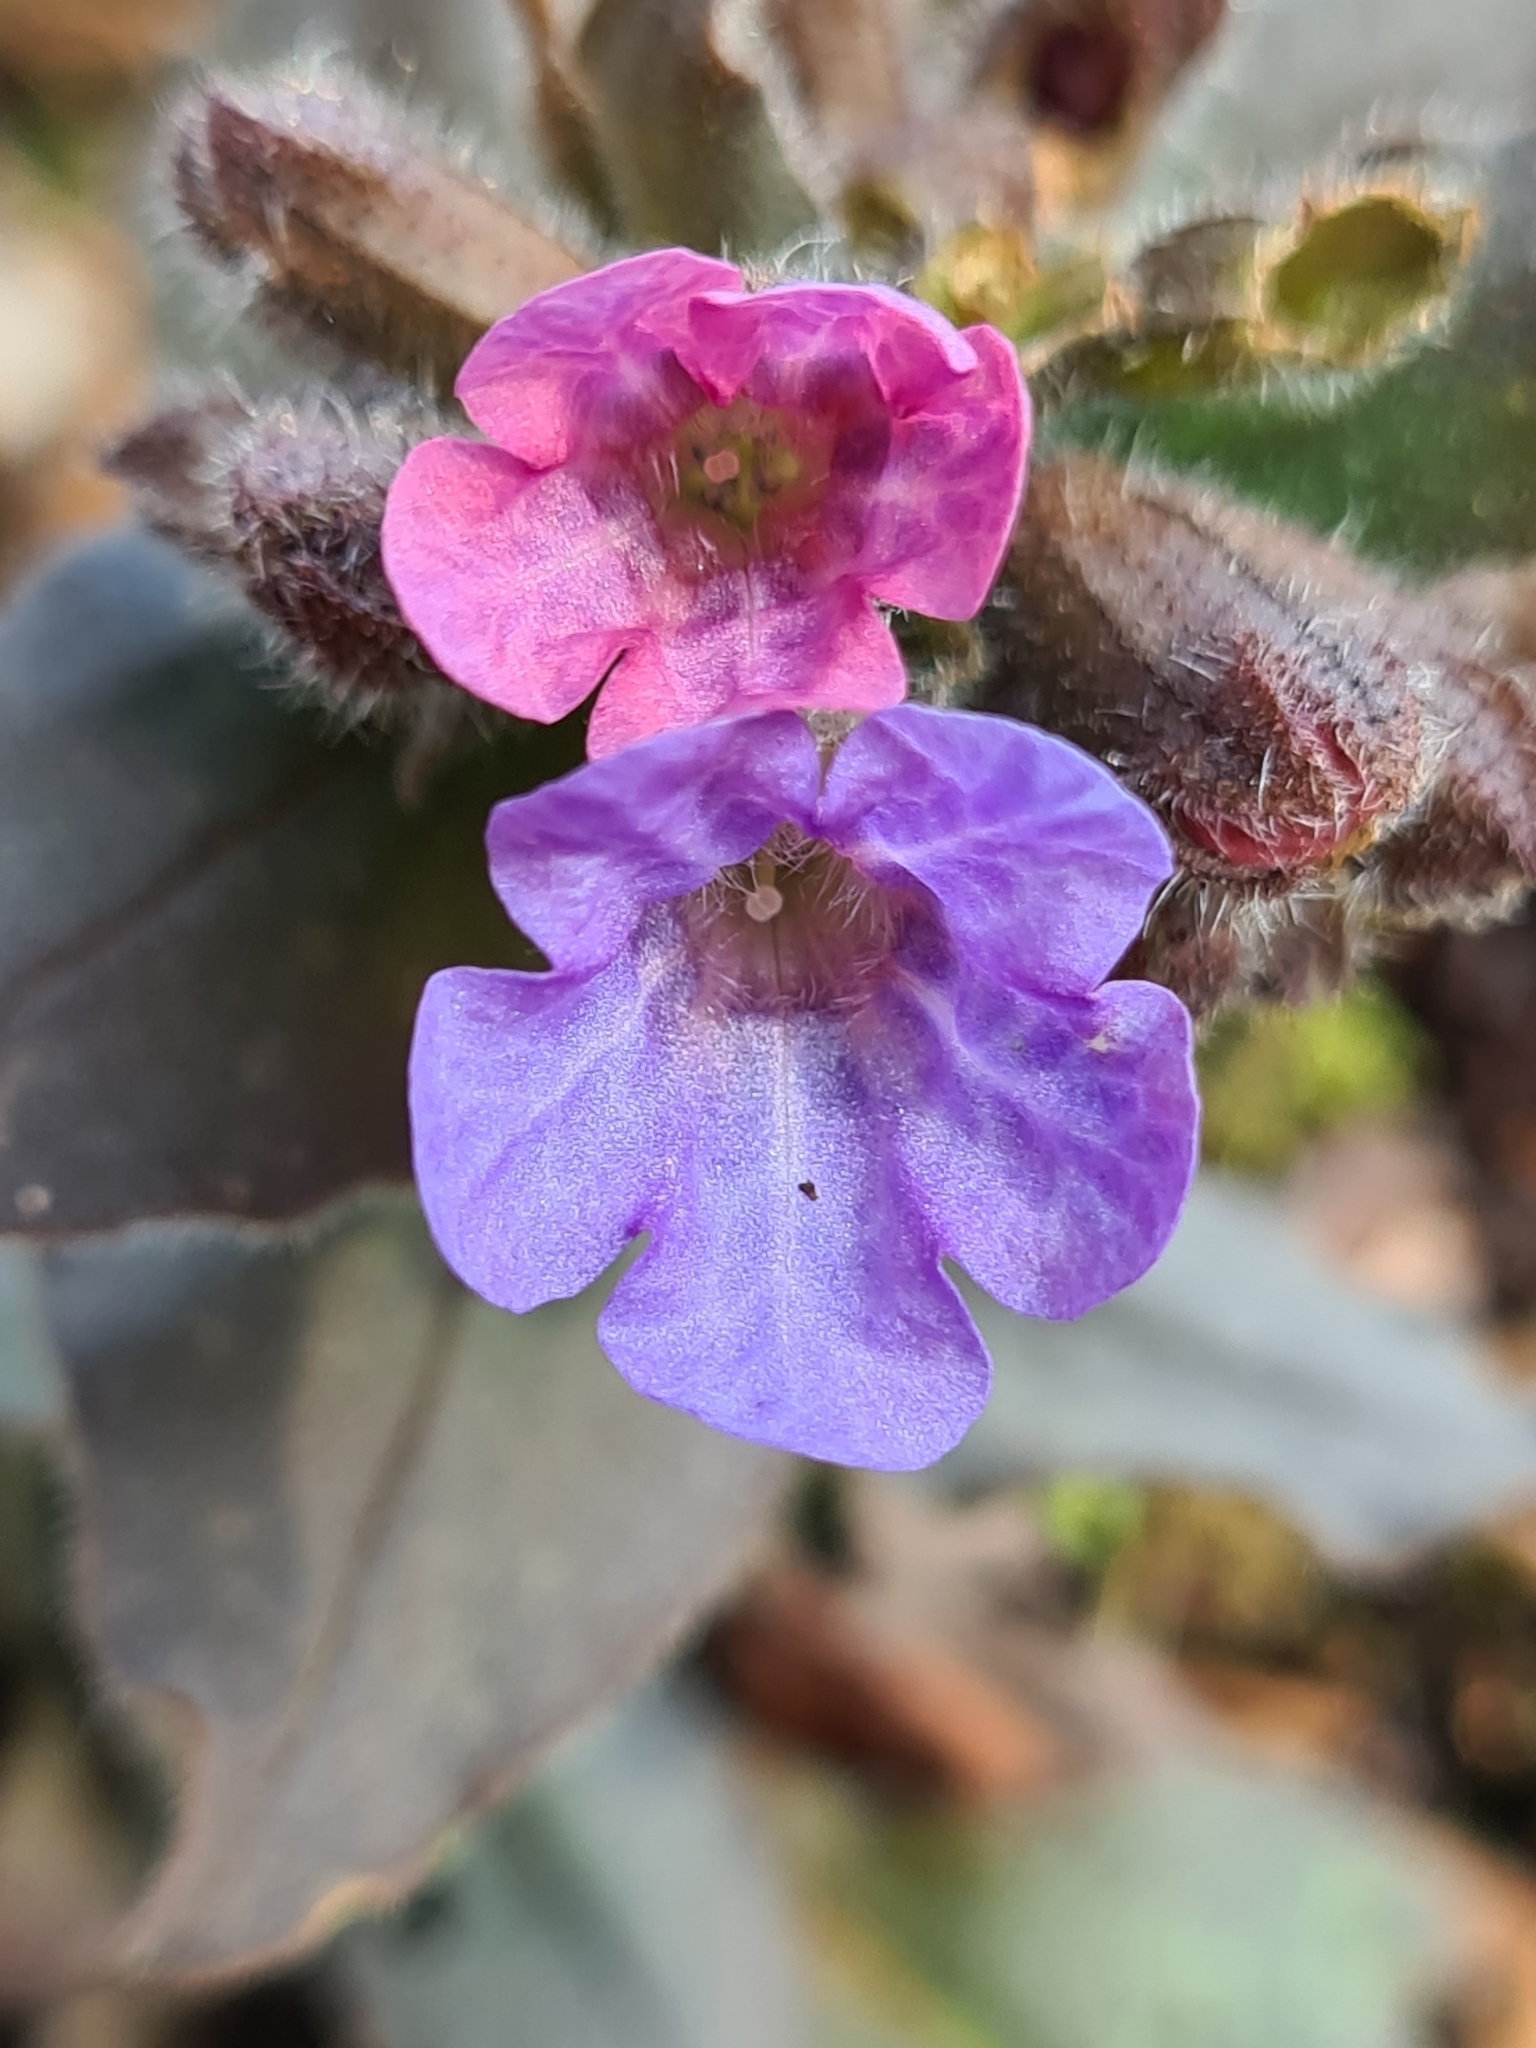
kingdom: Plantae
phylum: Tracheophyta
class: Magnoliopsida
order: Boraginales
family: Boraginaceae
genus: Pulmonaria
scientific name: Pulmonaria officinalis
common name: Lungwort
